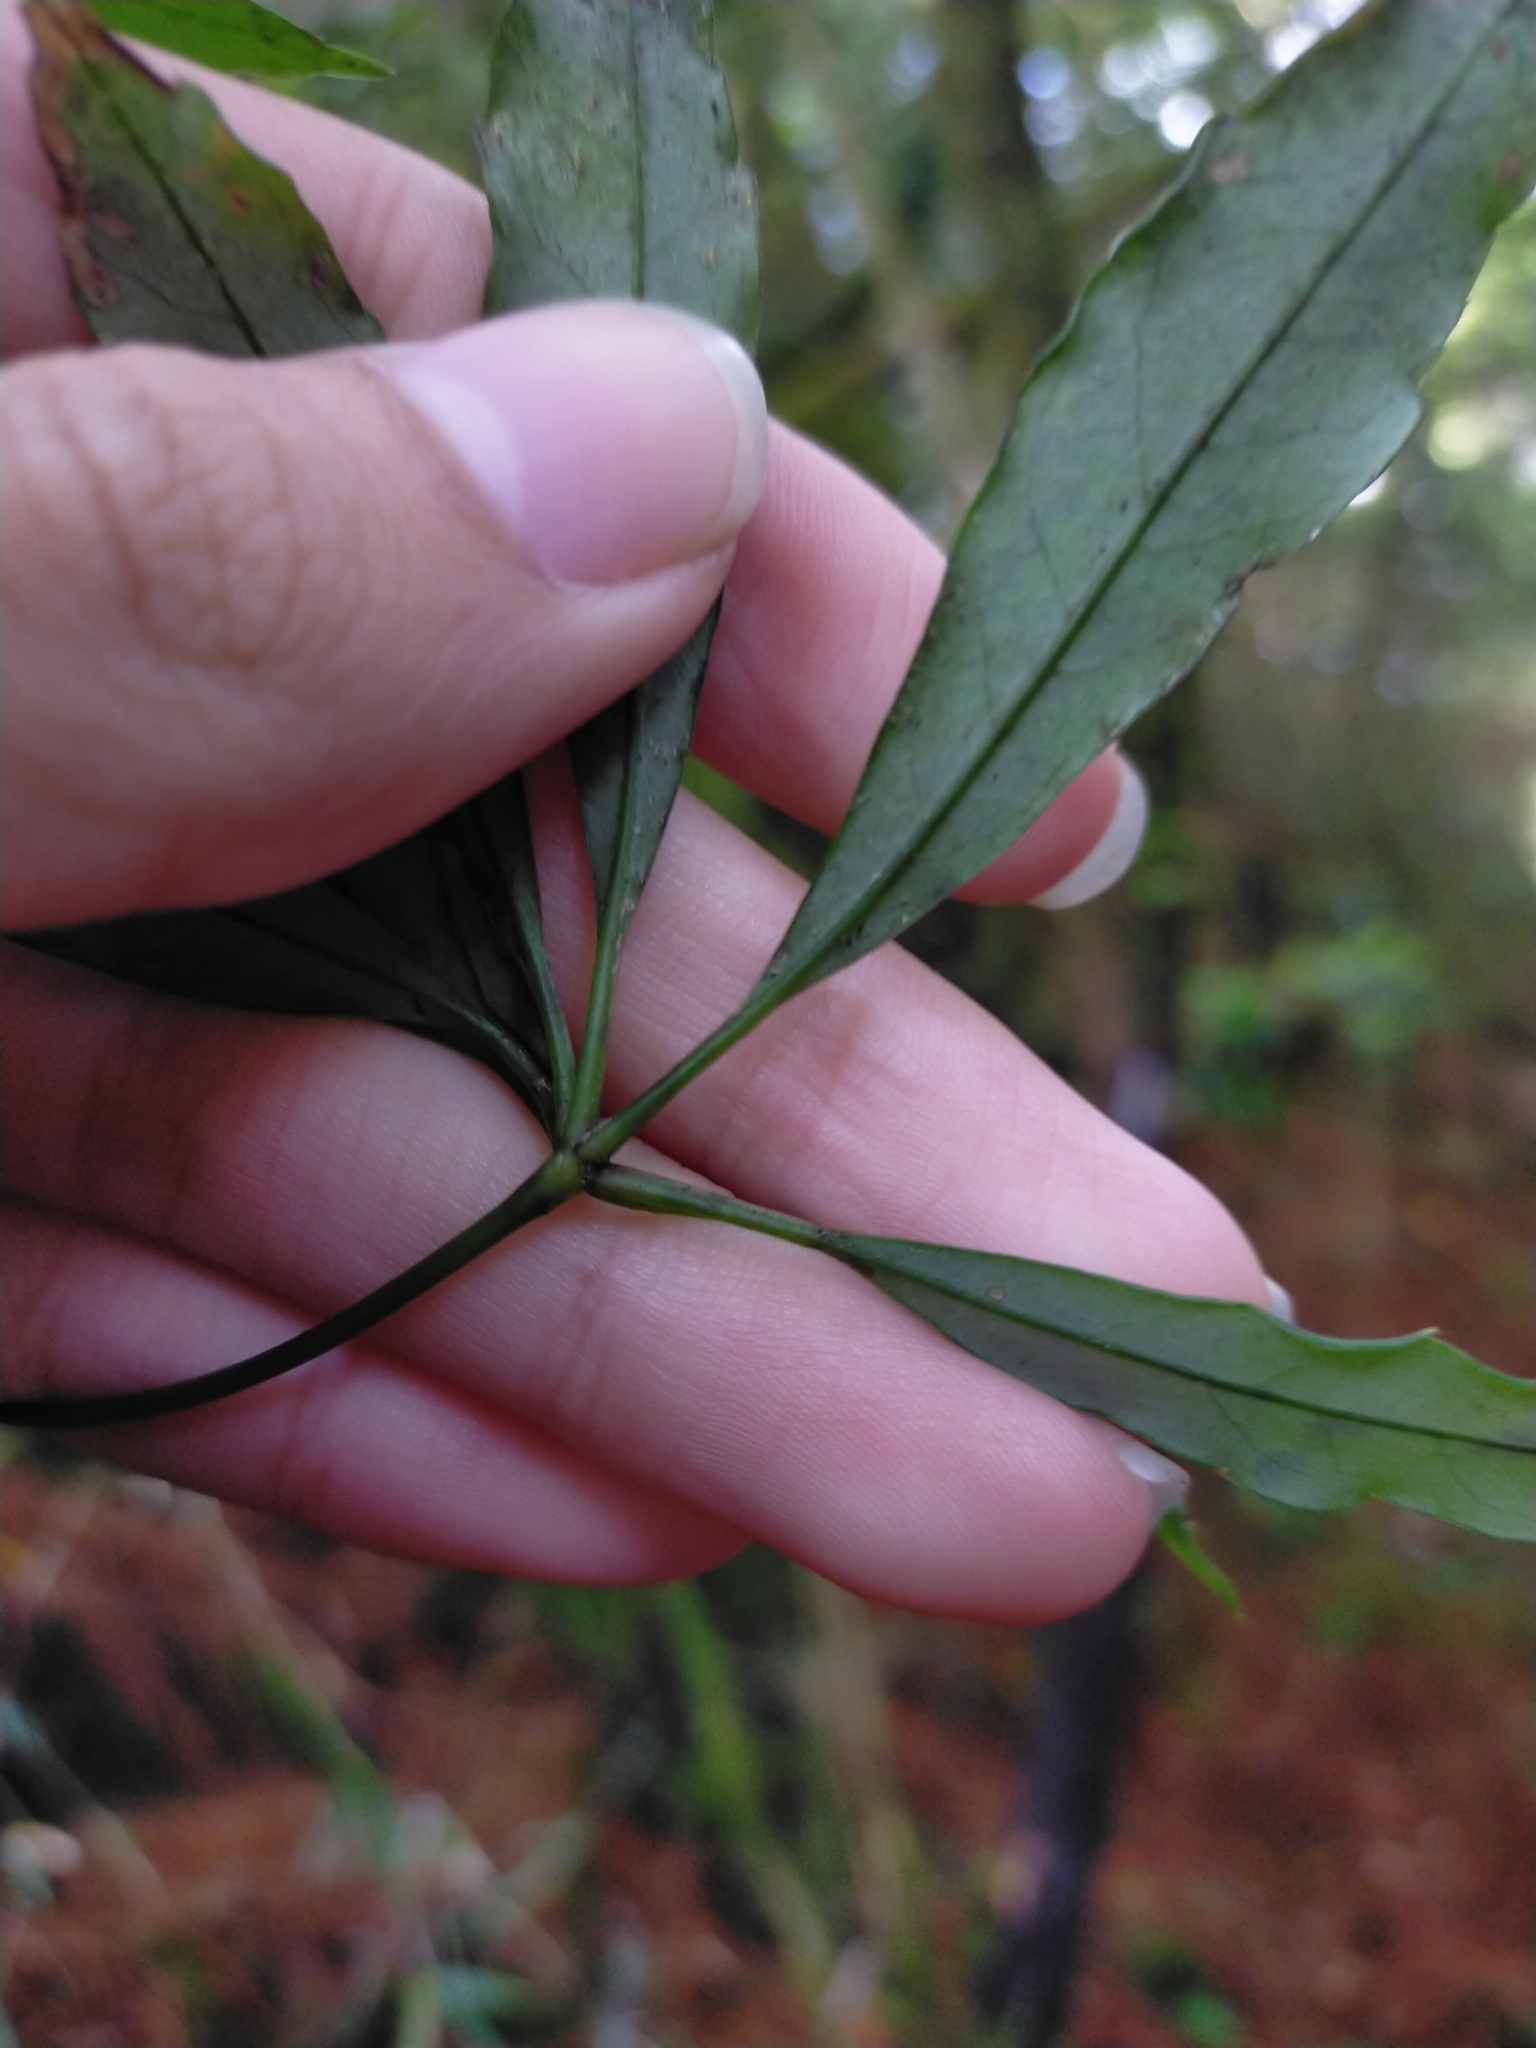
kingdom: Plantae
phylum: Tracheophyta
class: Magnoliopsida
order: Apiales
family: Araliaceae
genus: Heptapleurum
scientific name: Heptapleurum taiwanianum
